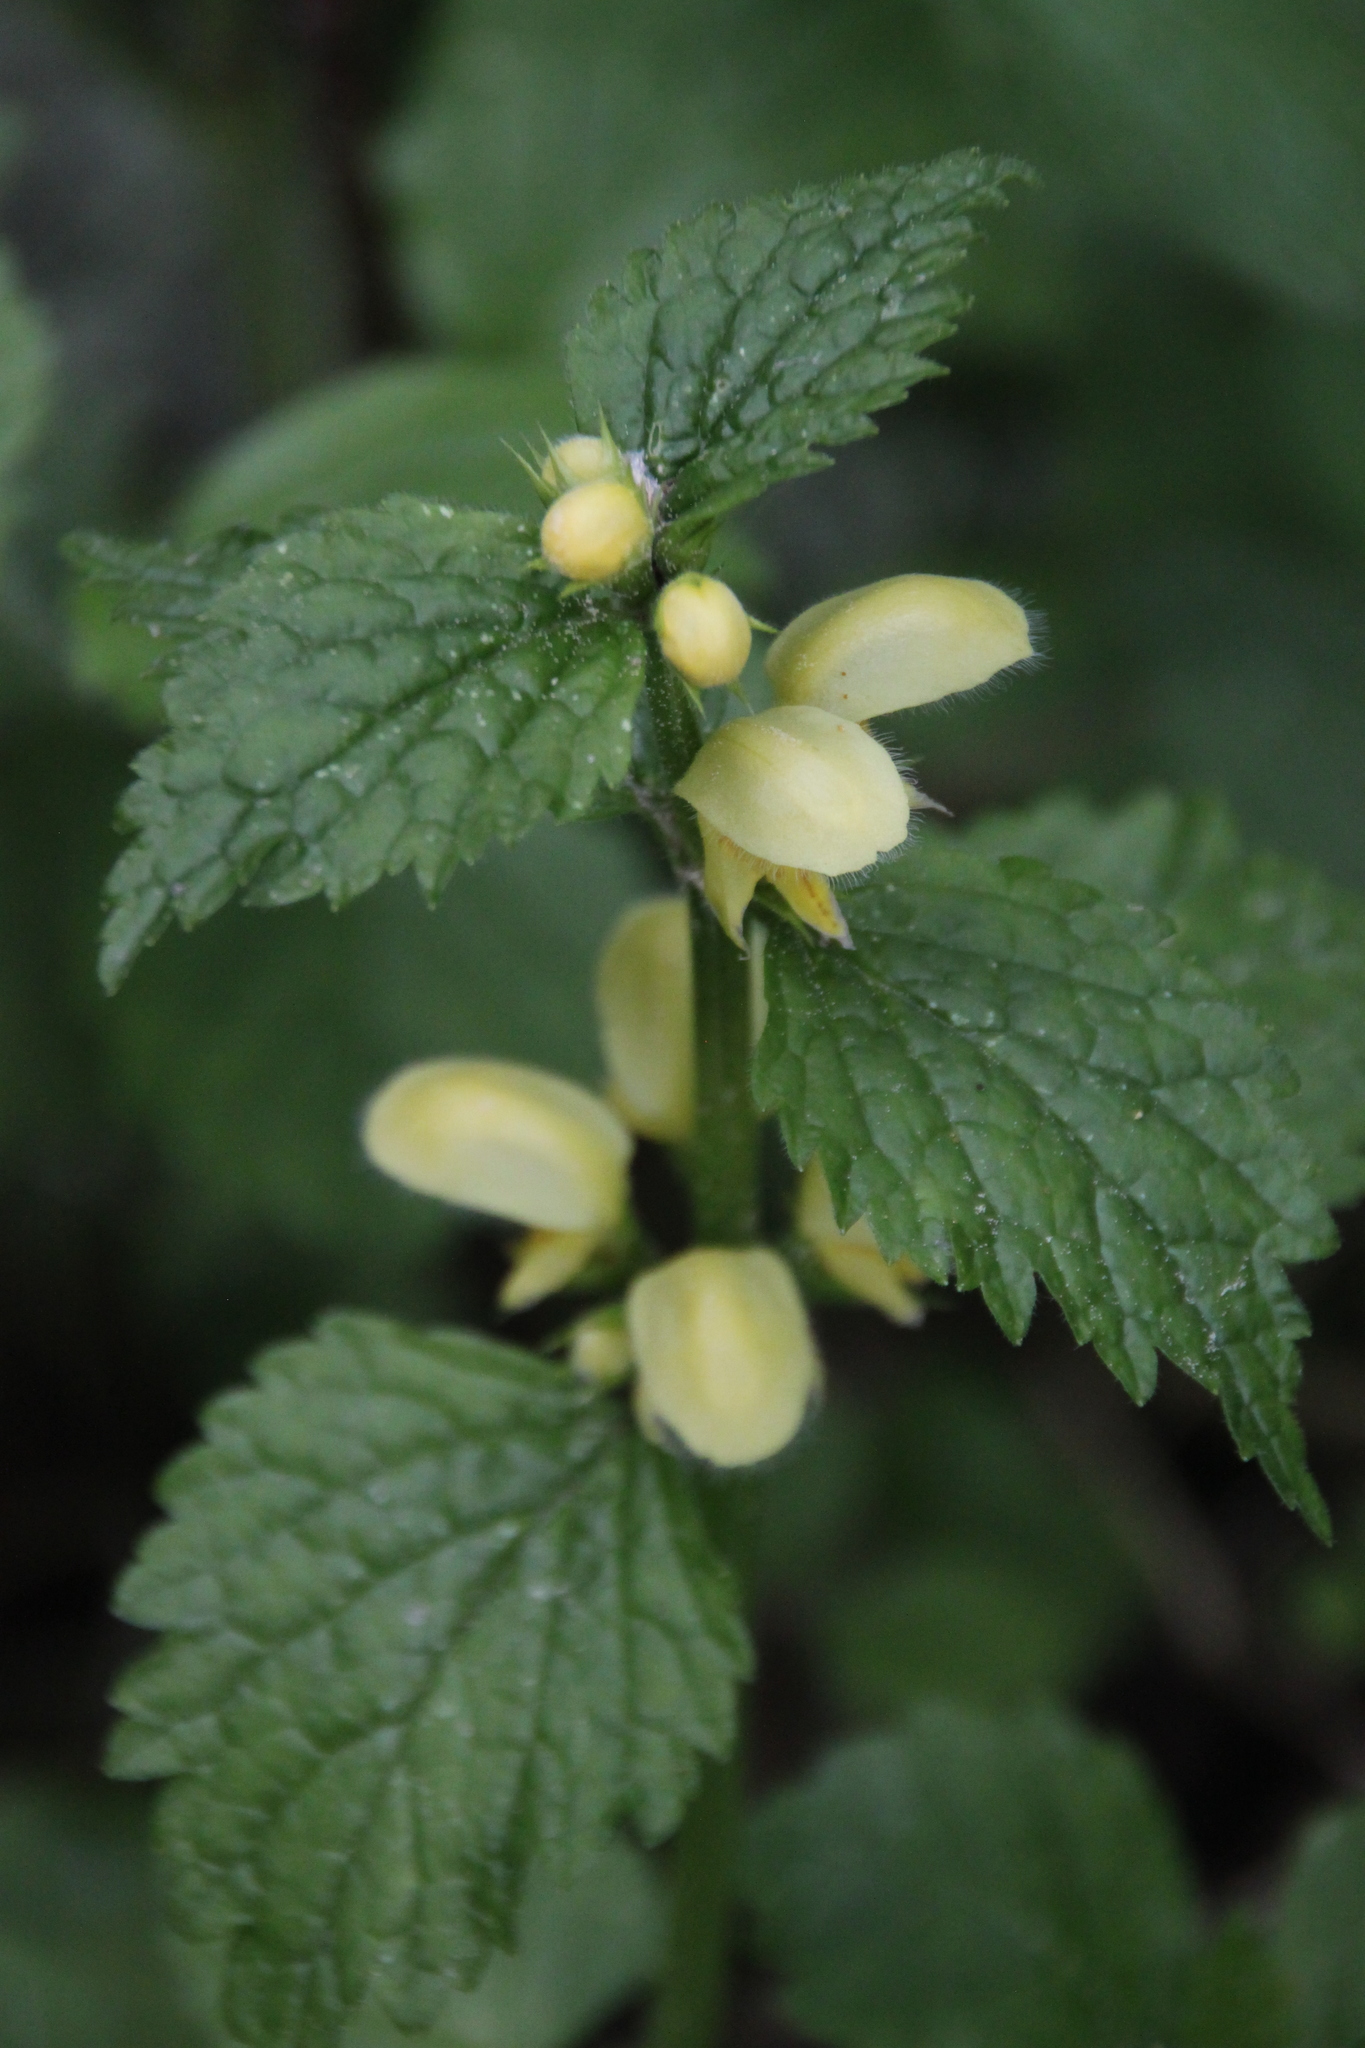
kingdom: Plantae
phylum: Tracheophyta
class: Magnoliopsida
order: Lamiales
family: Lamiaceae
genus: Lamium
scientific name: Lamium galeobdolon
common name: Yellow archangel
